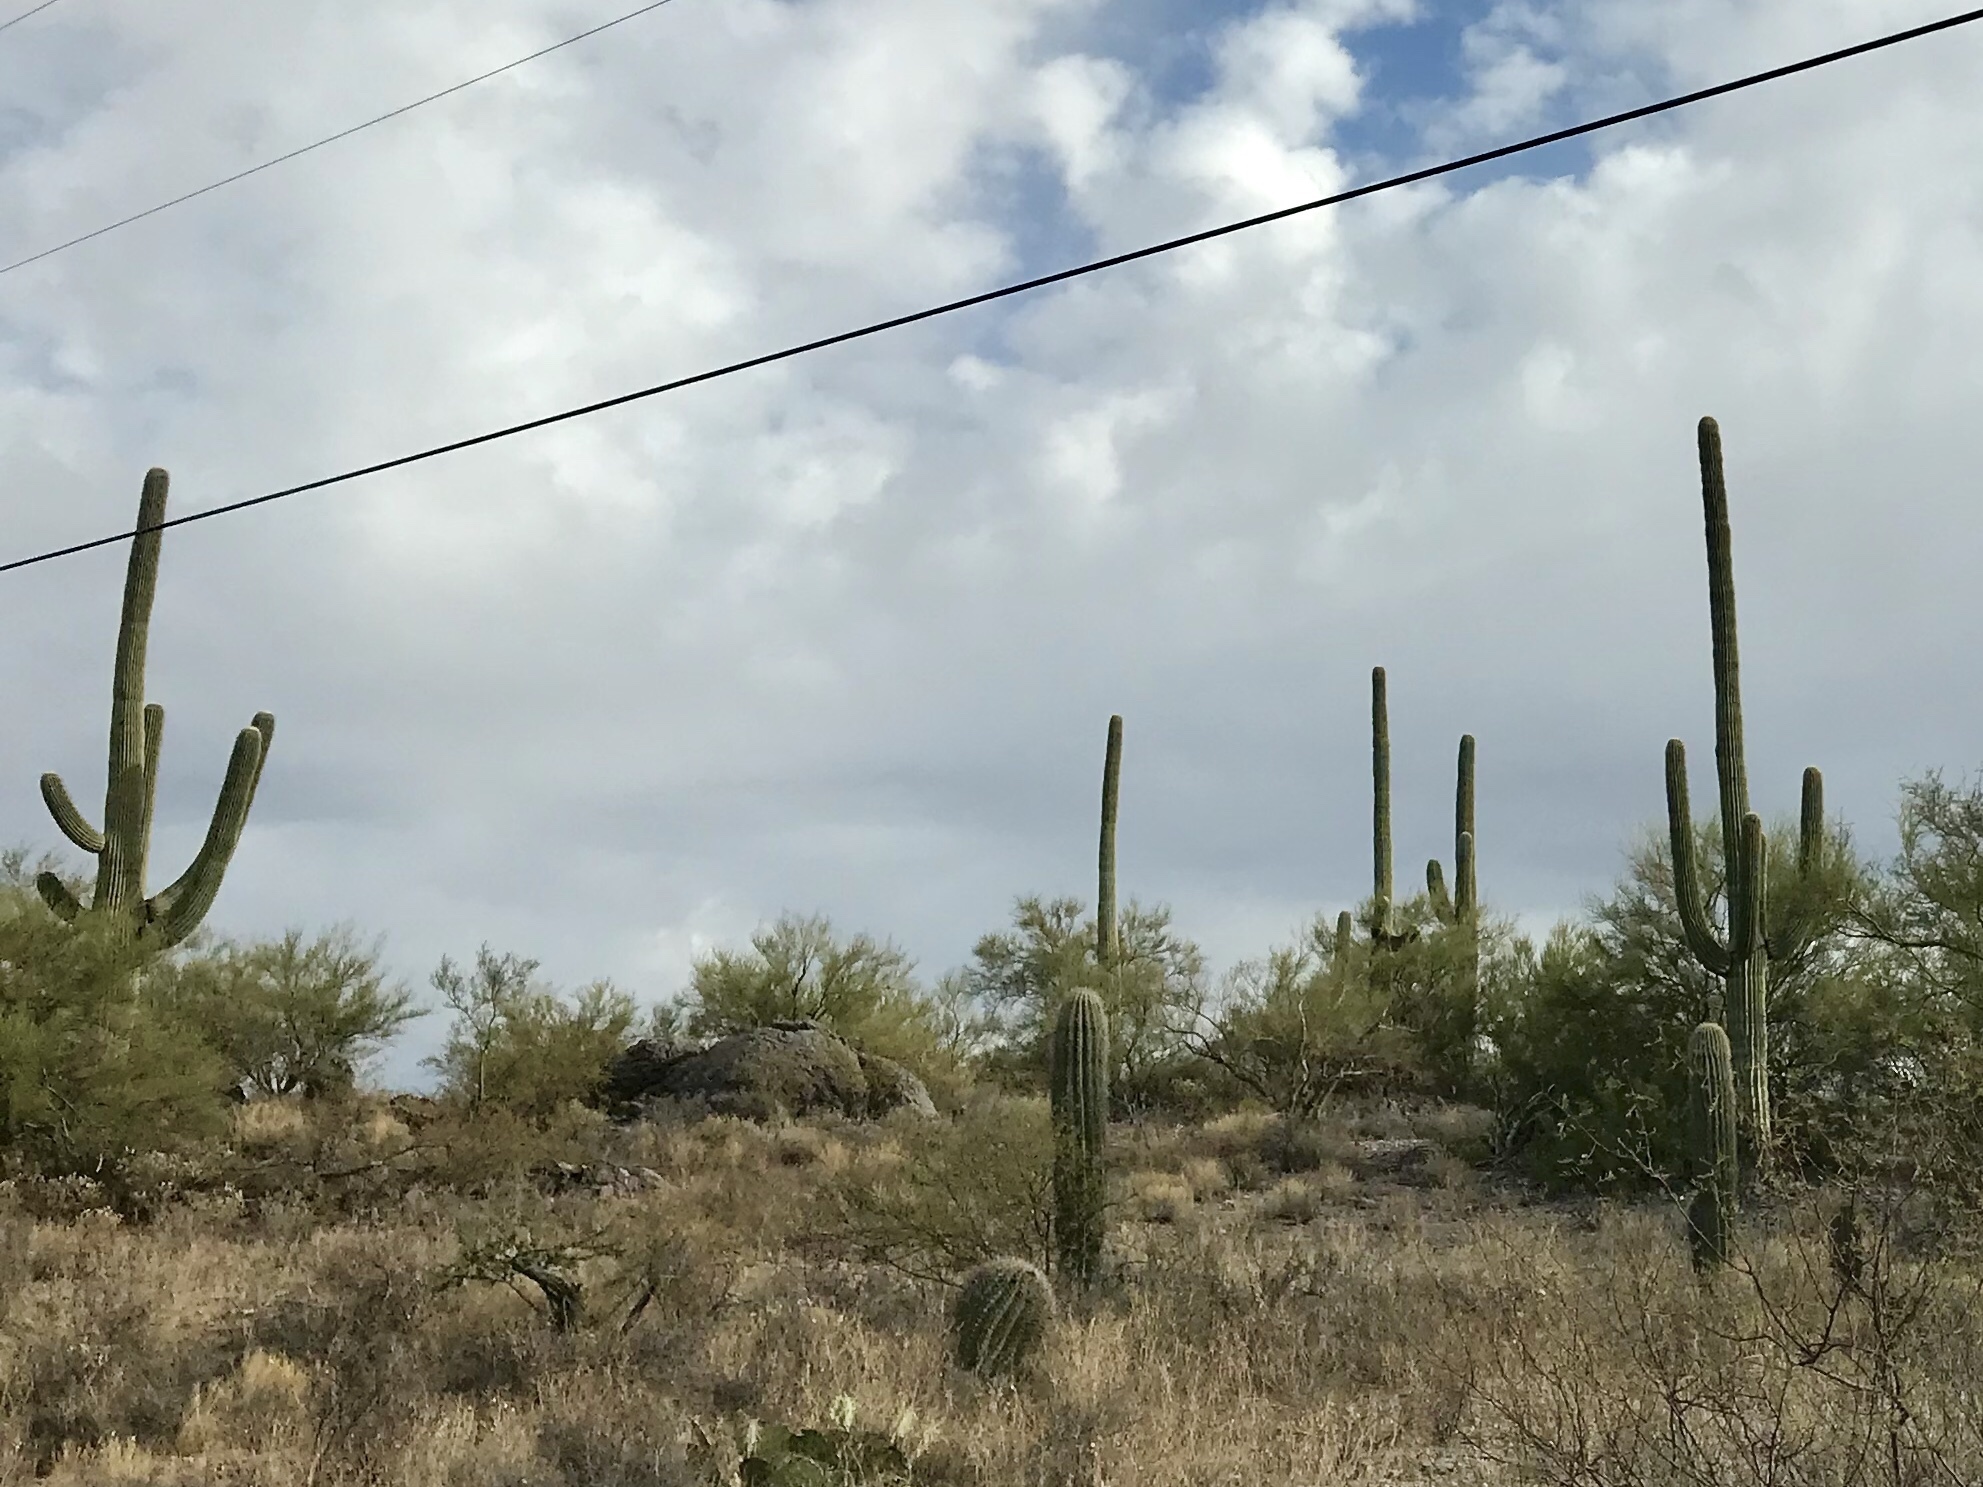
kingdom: Plantae
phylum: Tracheophyta
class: Magnoliopsida
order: Caryophyllales
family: Cactaceae
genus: Carnegiea
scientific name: Carnegiea gigantea
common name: Saguaro
